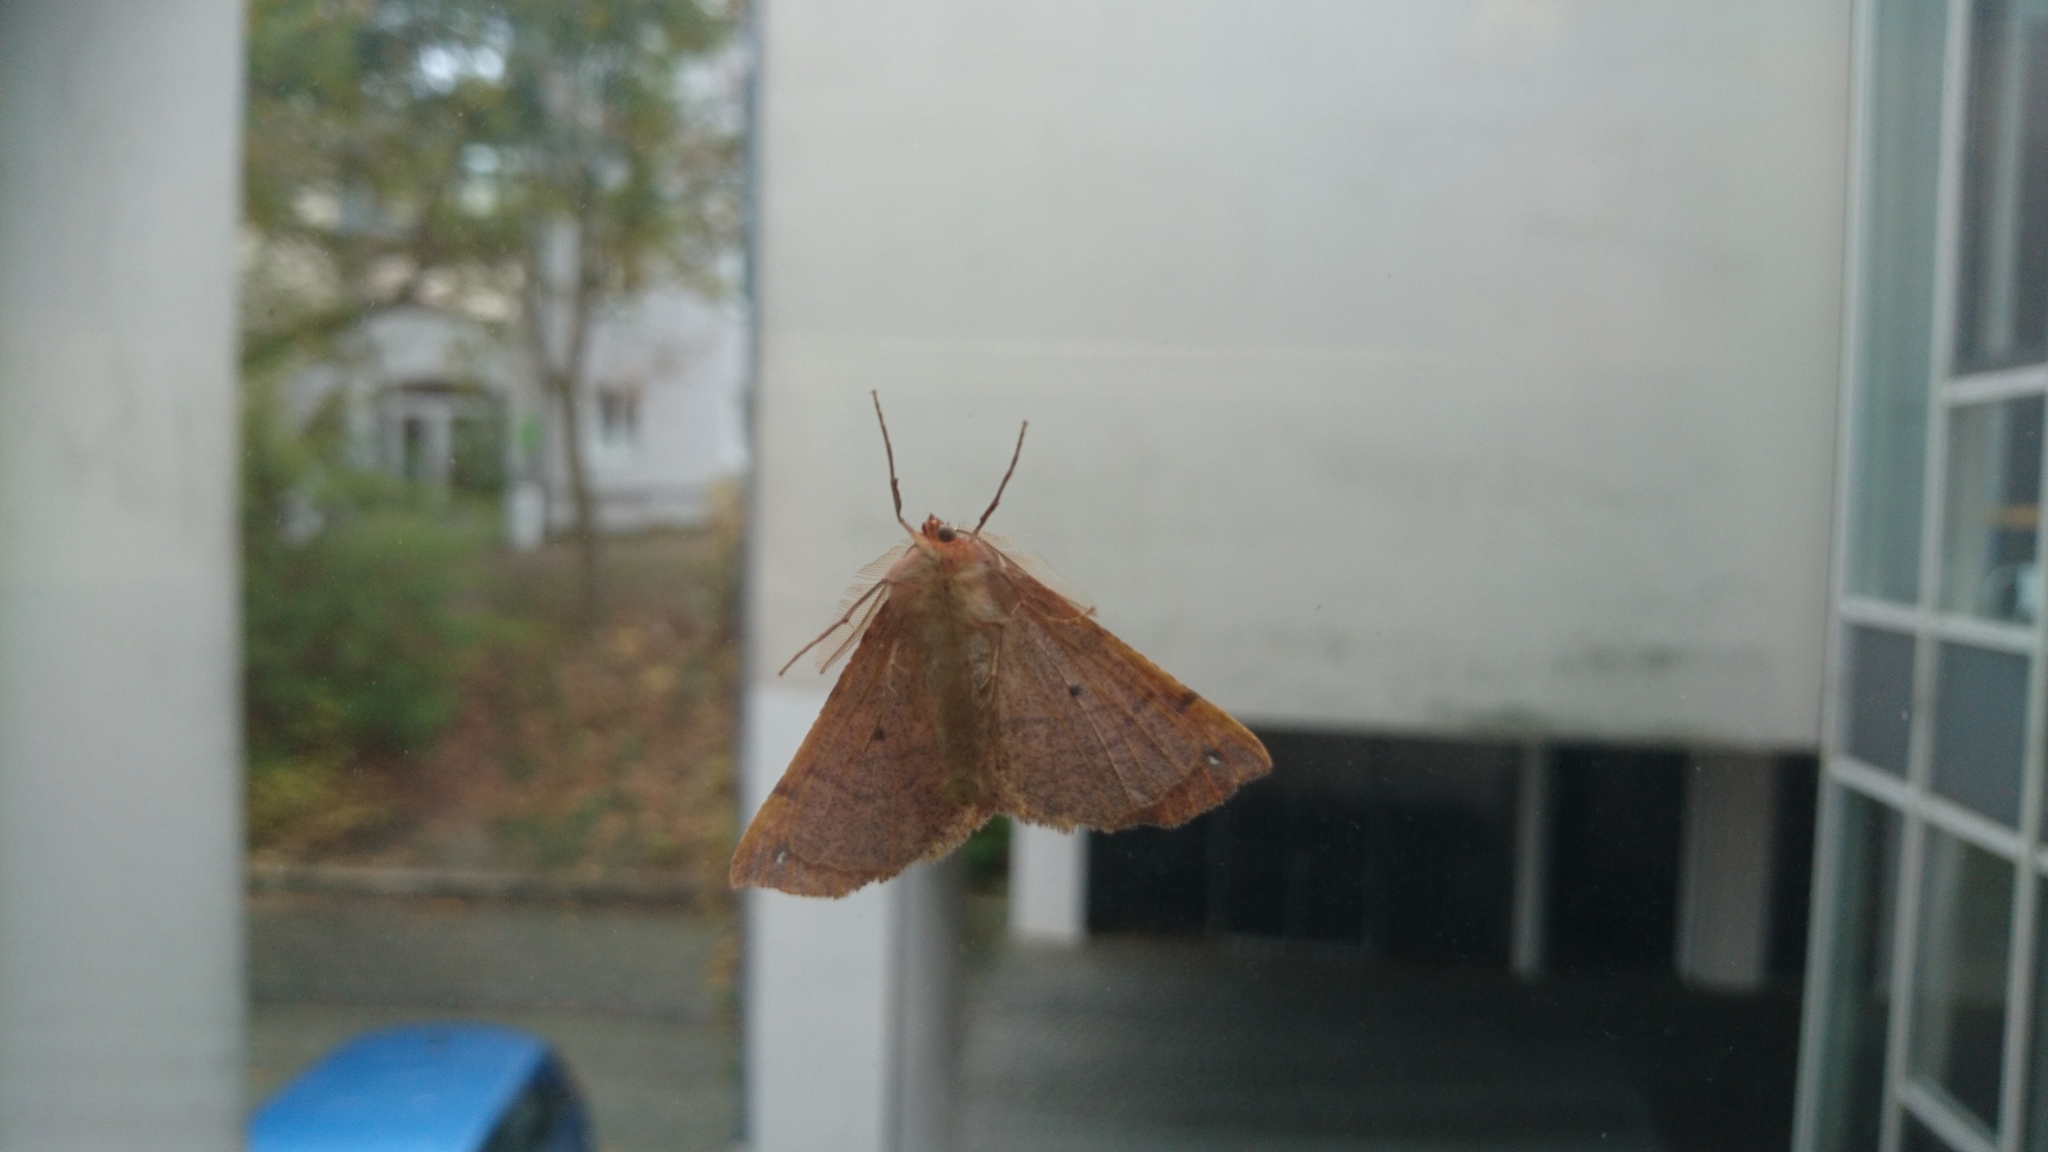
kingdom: Animalia
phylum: Arthropoda
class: Insecta
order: Lepidoptera
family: Geometridae
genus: Colotois
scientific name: Colotois pennaria
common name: Feathered thorn
